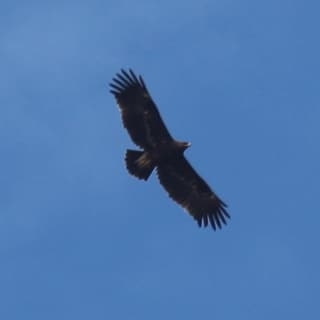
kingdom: Animalia
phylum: Chordata
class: Aves
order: Accipitriformes
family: Accipitridae
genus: Aquila
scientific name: Aquila clanga
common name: Greater spotted eagle
